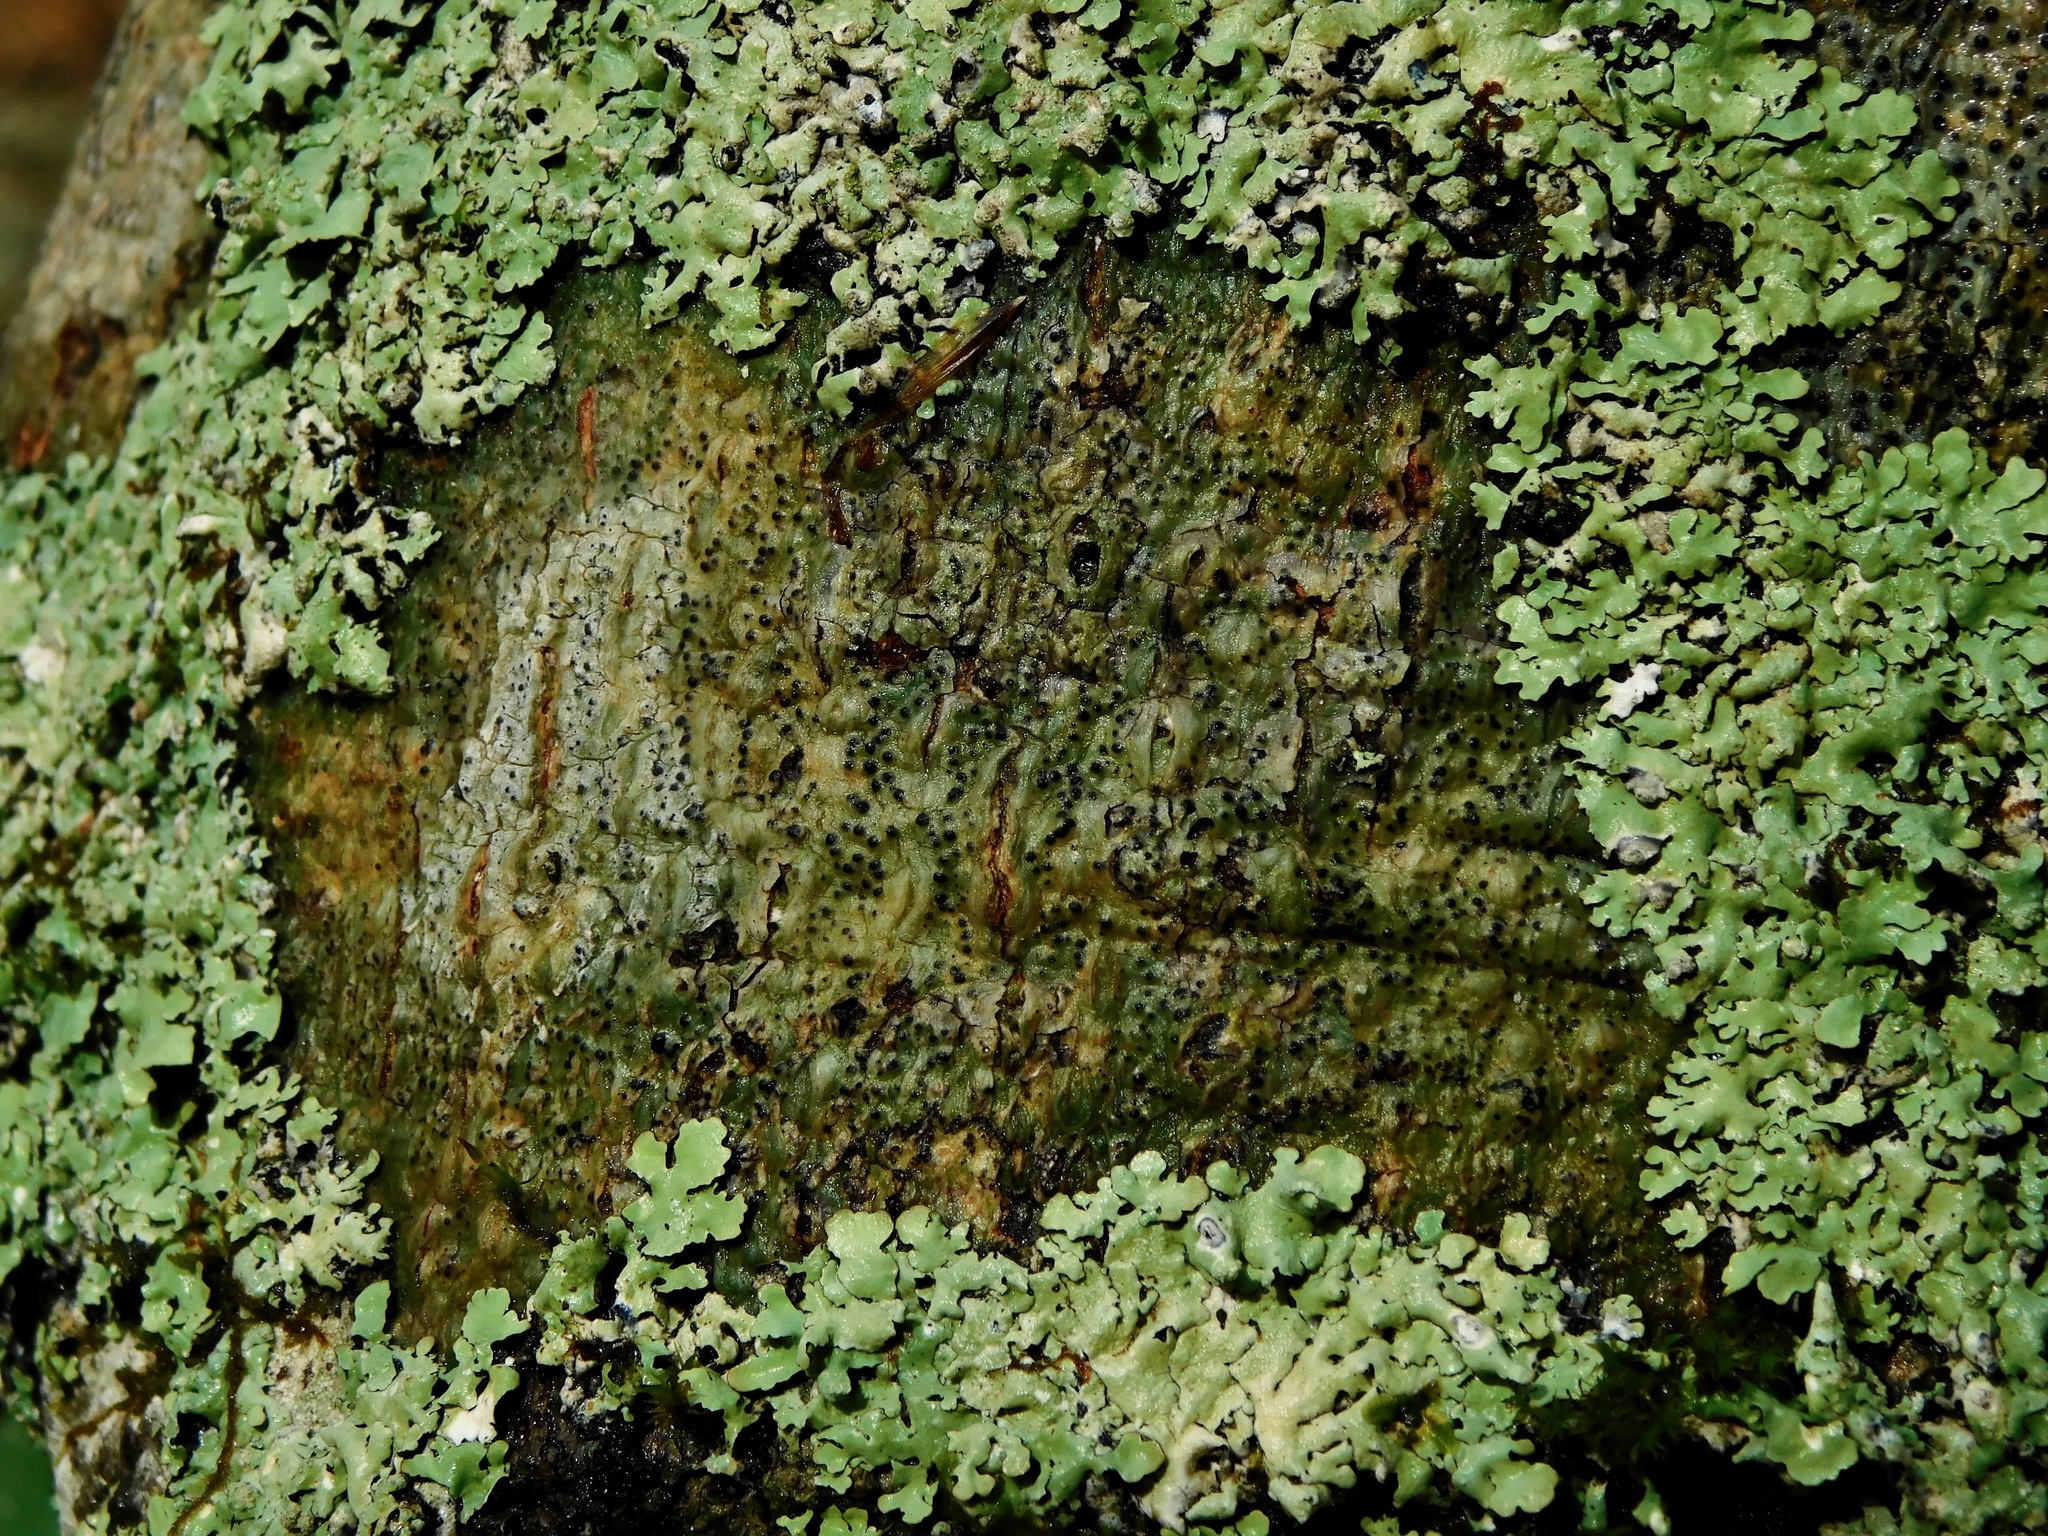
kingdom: Fungi
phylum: Ascomycota
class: Eurotiomycetes
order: Pyrenulales
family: Pyrenulaceae
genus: Pyrenula
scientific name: Pyrenula fetivica
